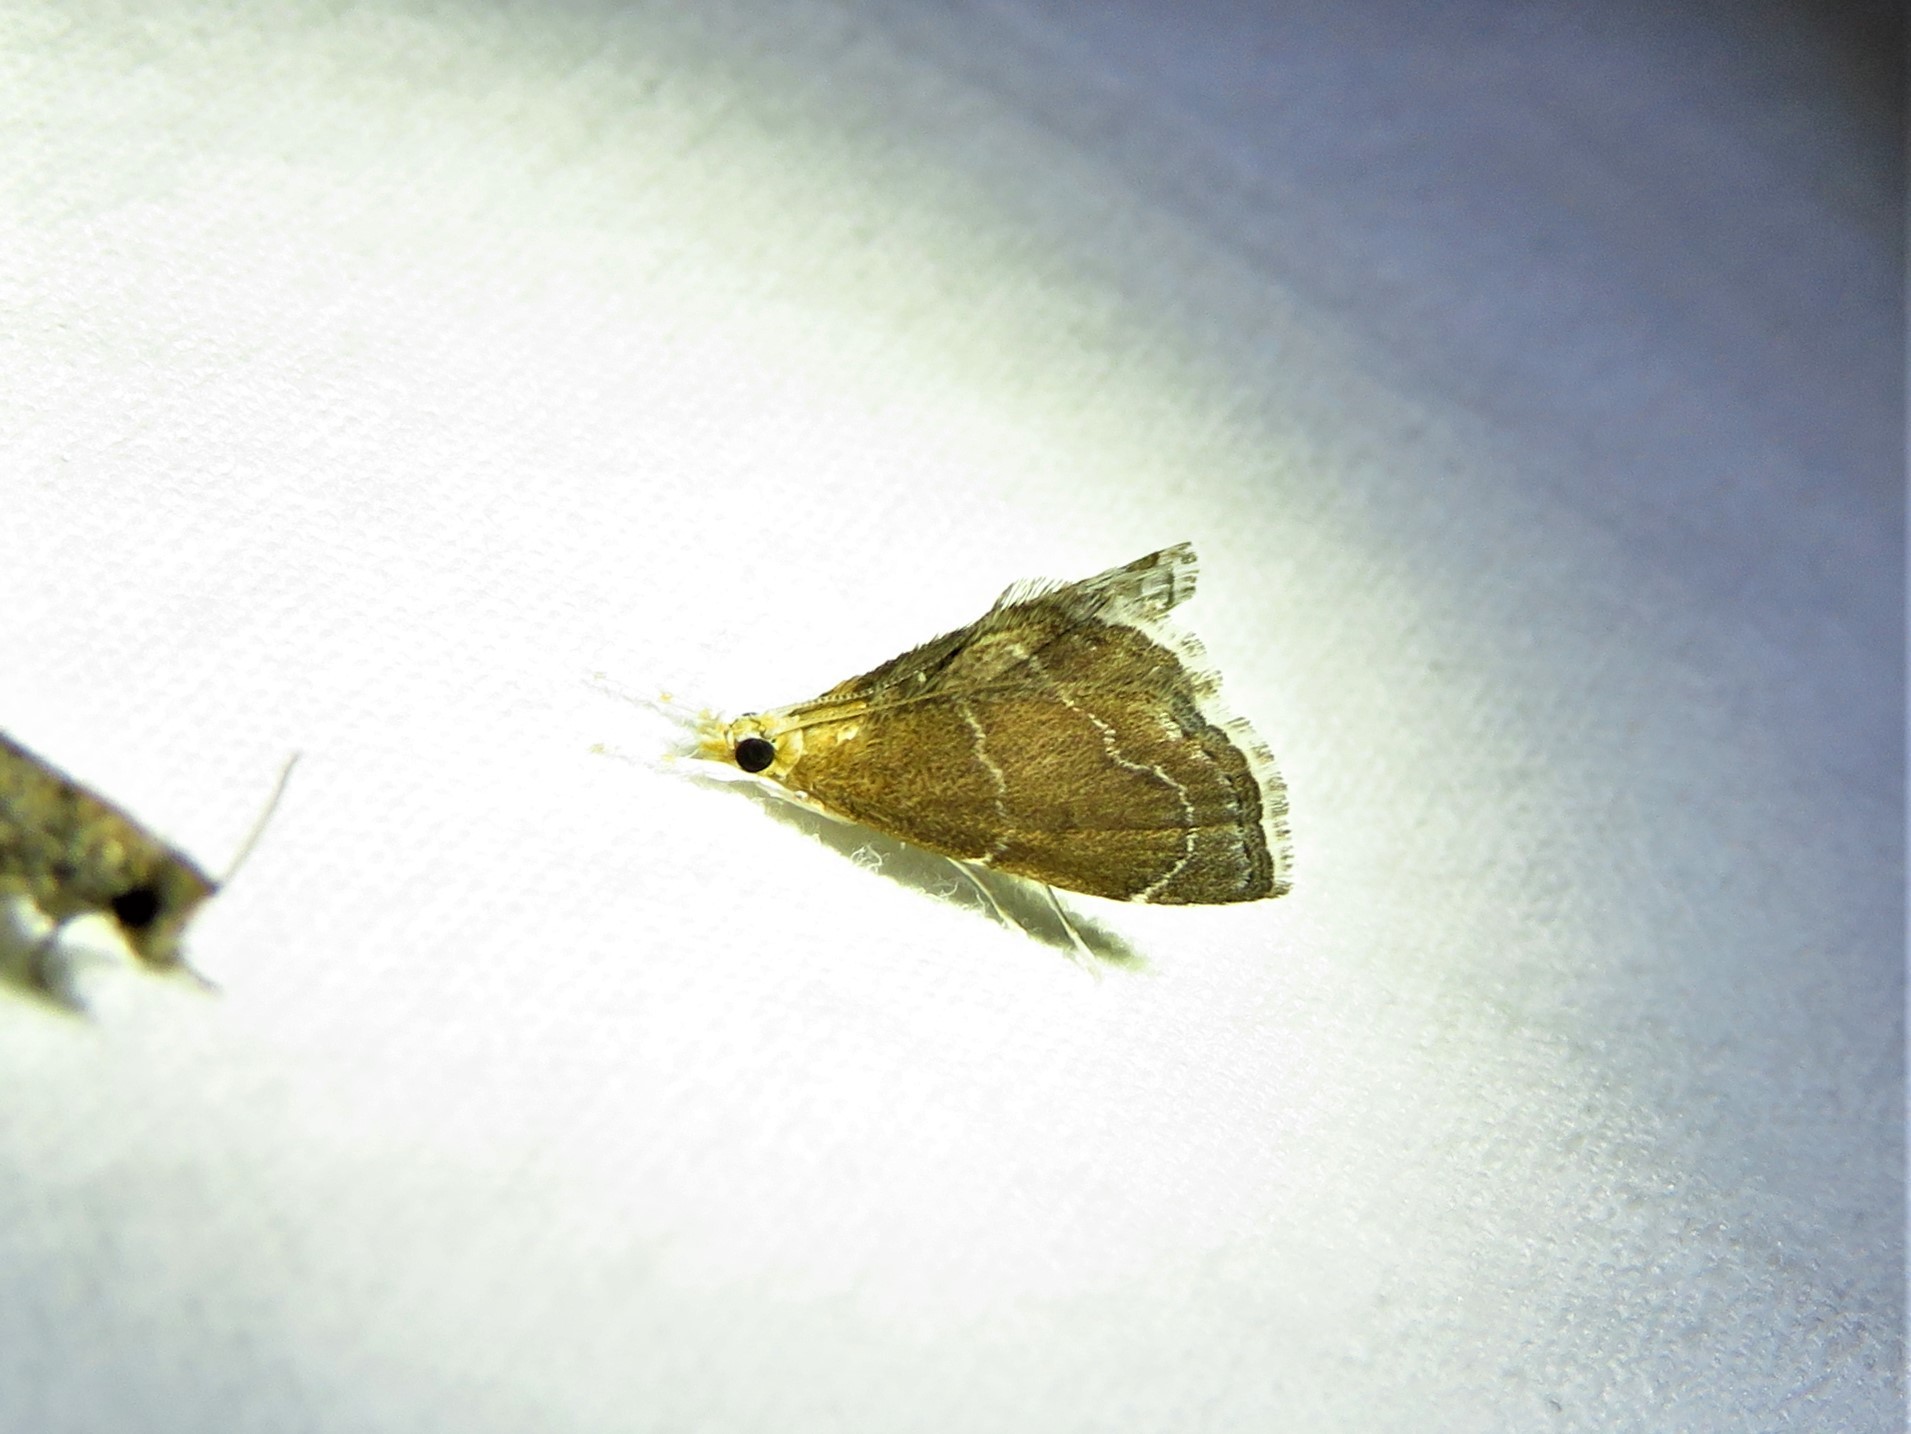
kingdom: Animalia
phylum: Arthropoda
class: Insecta
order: Lepidoptera
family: Crambidae
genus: Stegea
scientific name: Stegea eripalis
